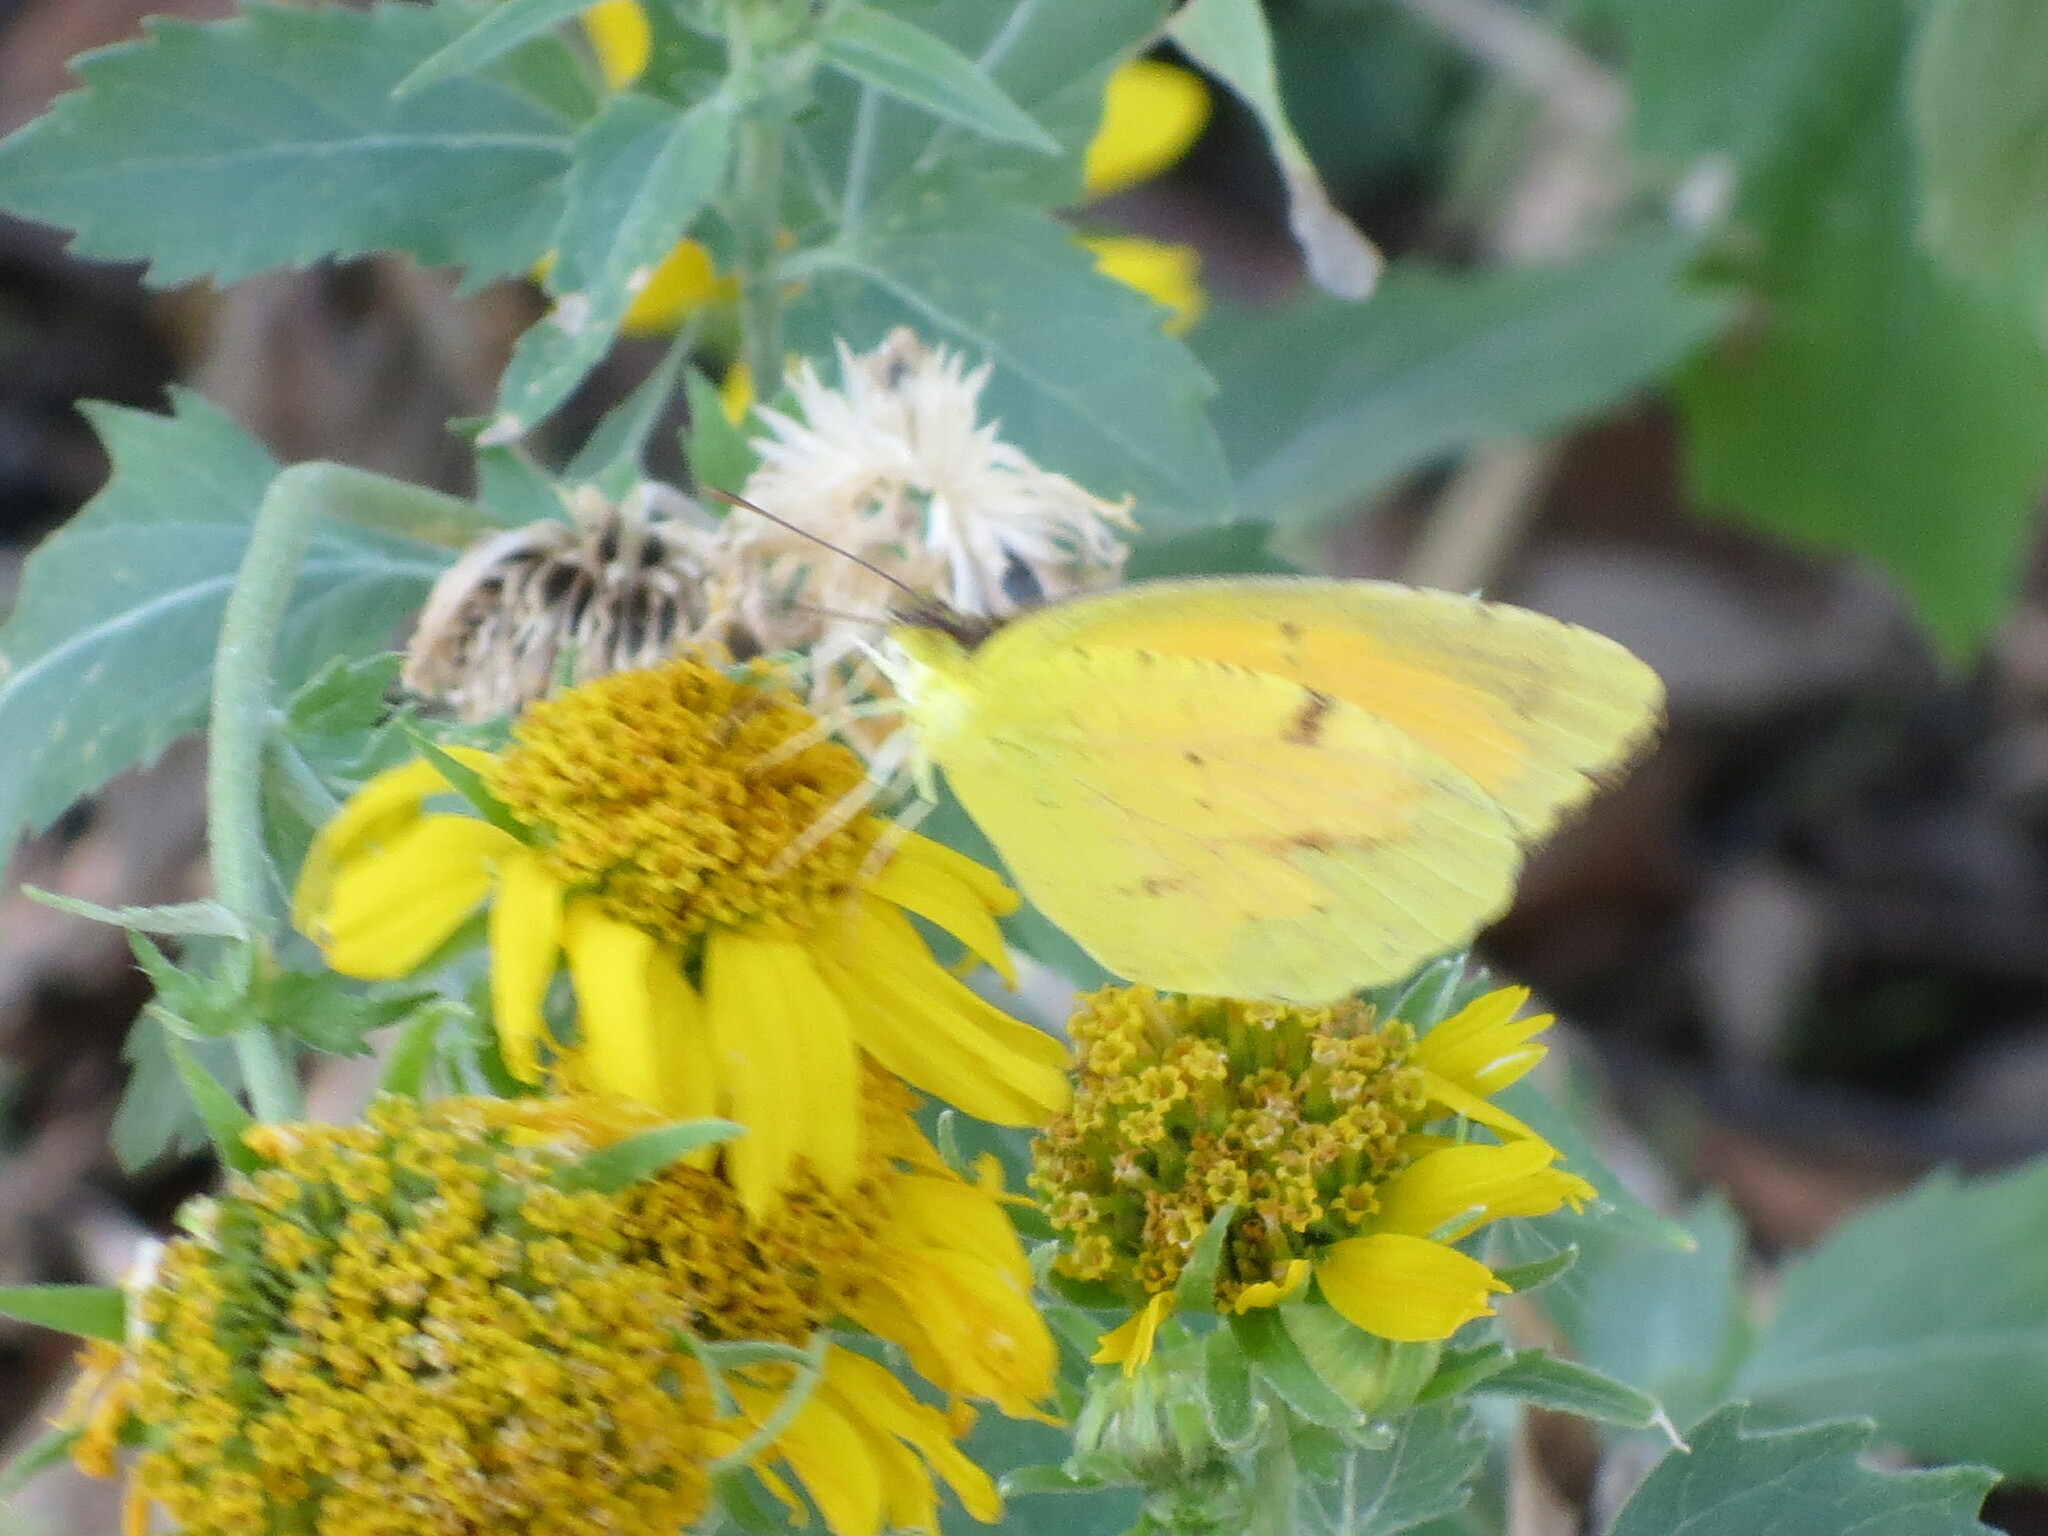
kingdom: Animalia
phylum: Arthropoda
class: Insecta
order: Lepidoptera
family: Pieridae
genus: Abaeis
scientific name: Abaeis nicippe
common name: Sleepy orange
